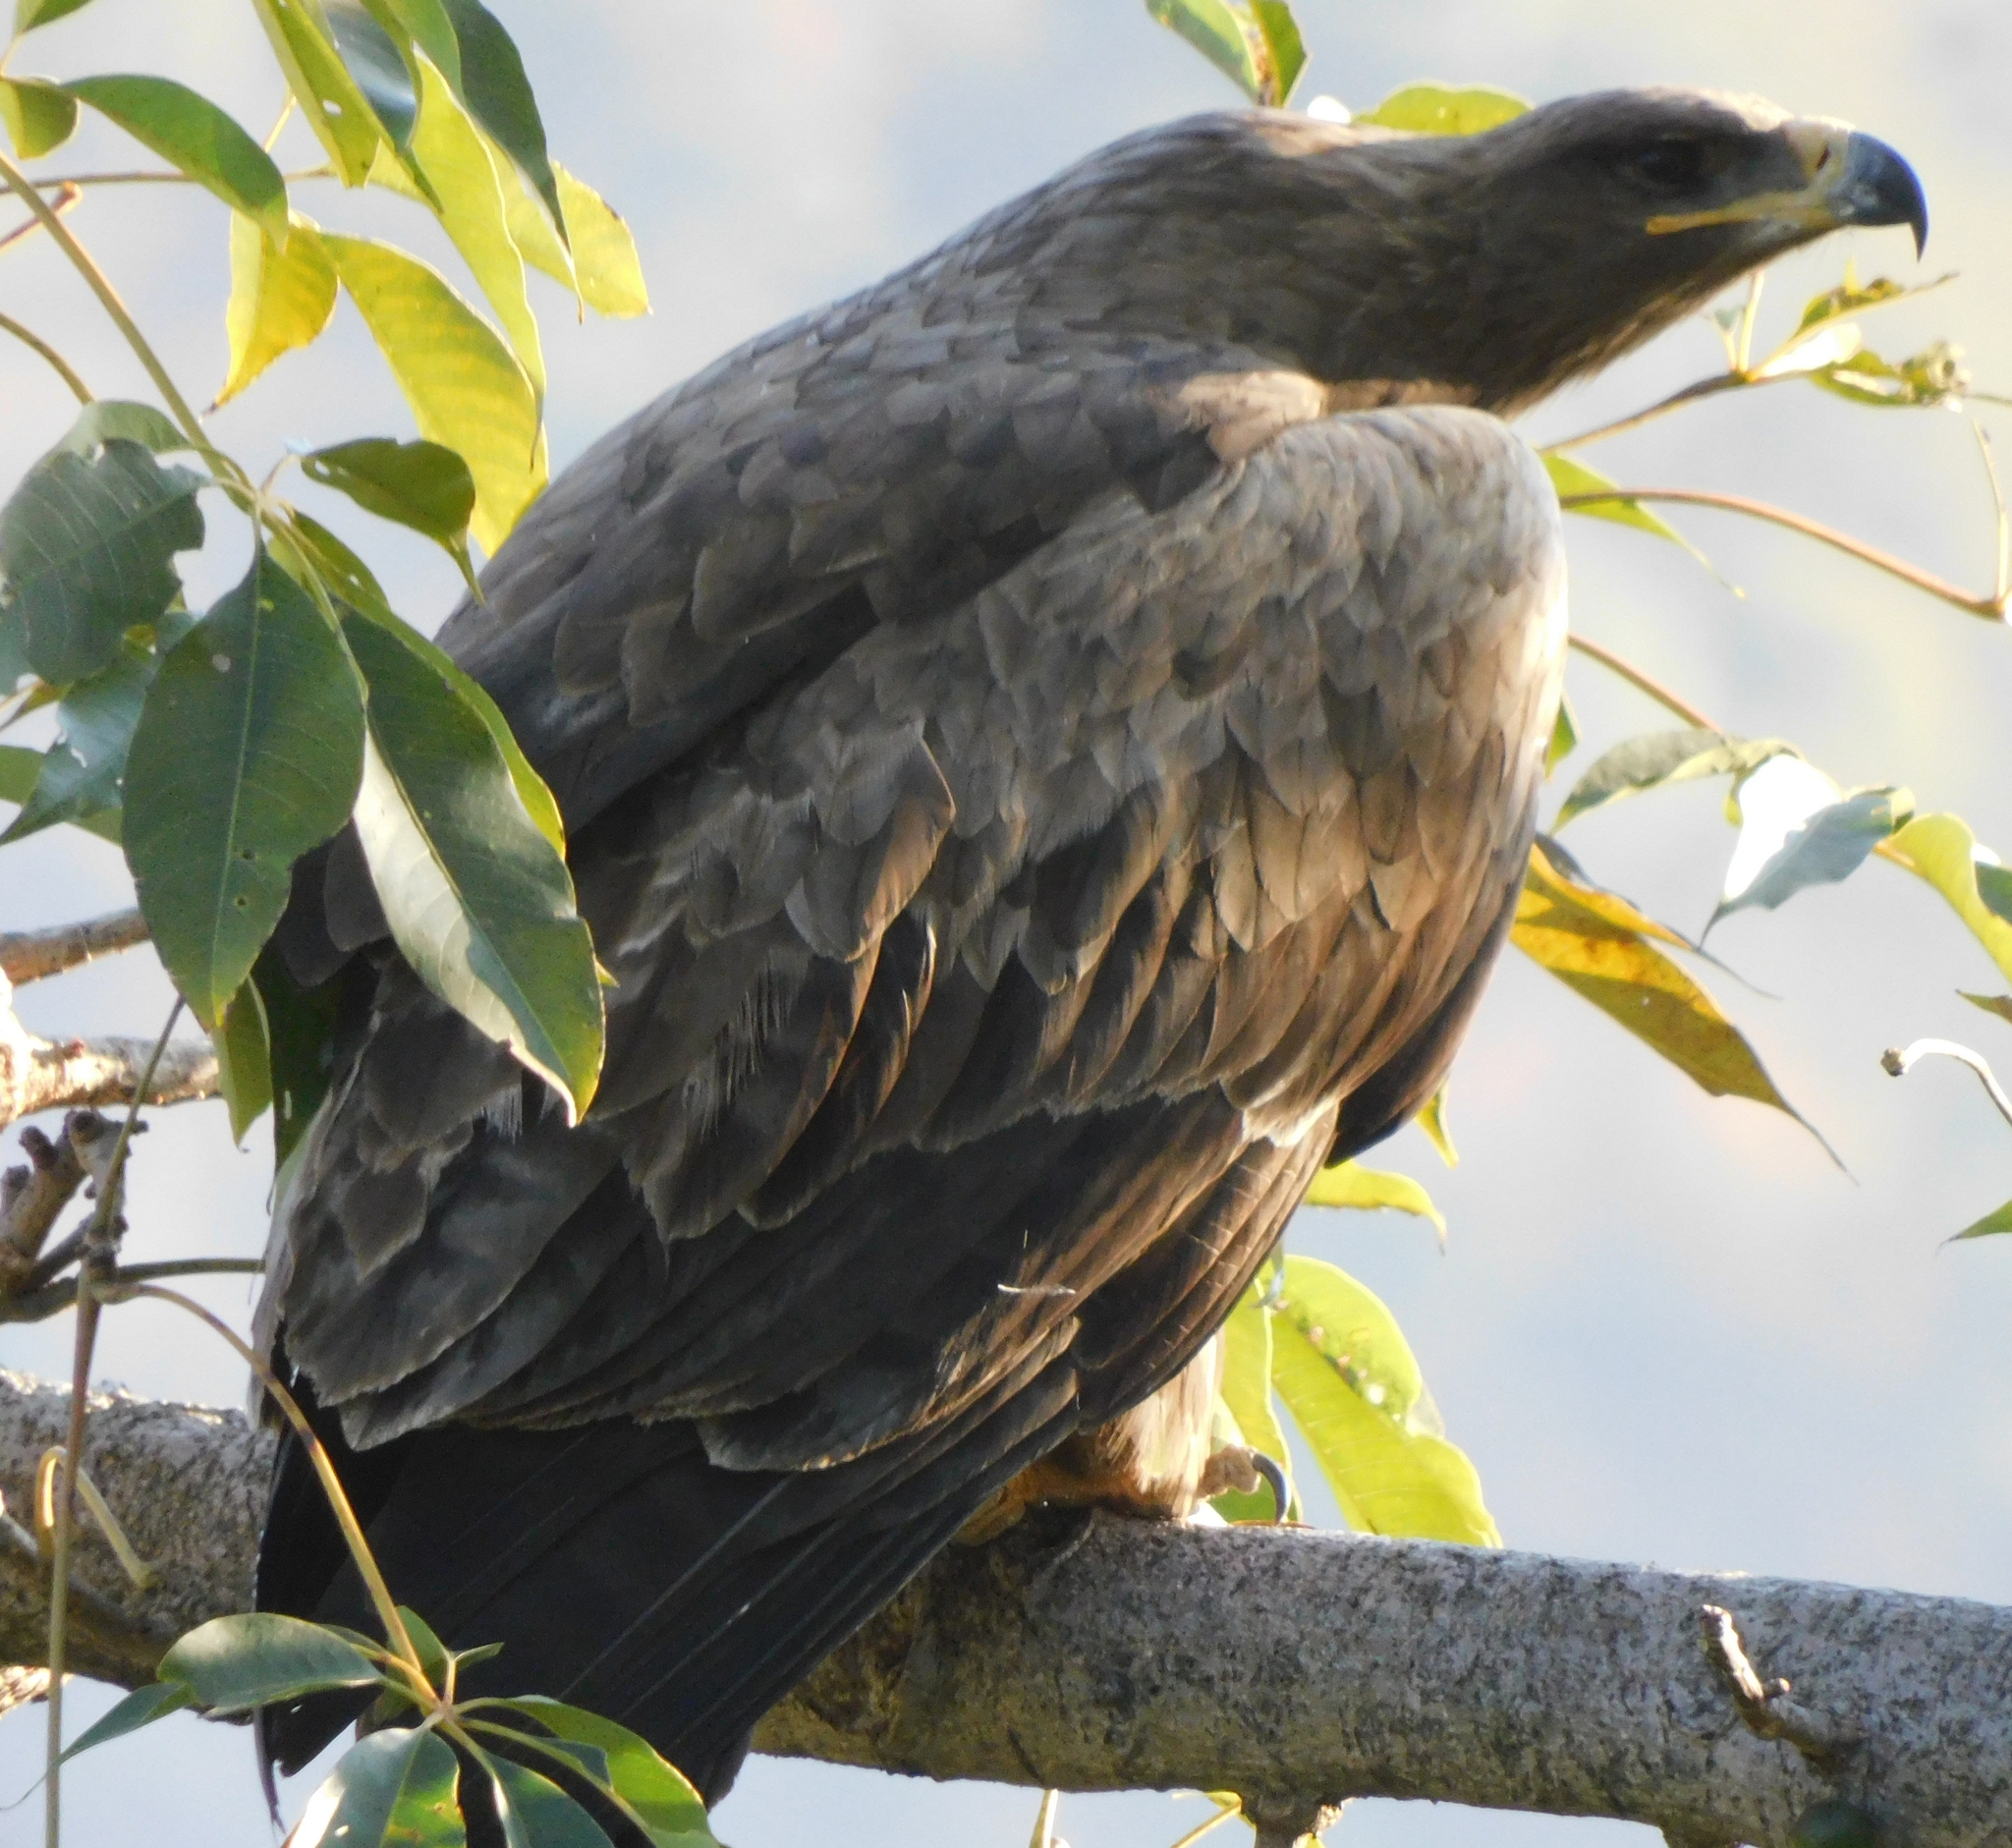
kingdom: Animalia
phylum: Chordata
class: Aves
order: Accipitriformes
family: Accipitridae
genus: Aquila
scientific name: Aquila nipalensis
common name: Steppe eagle
